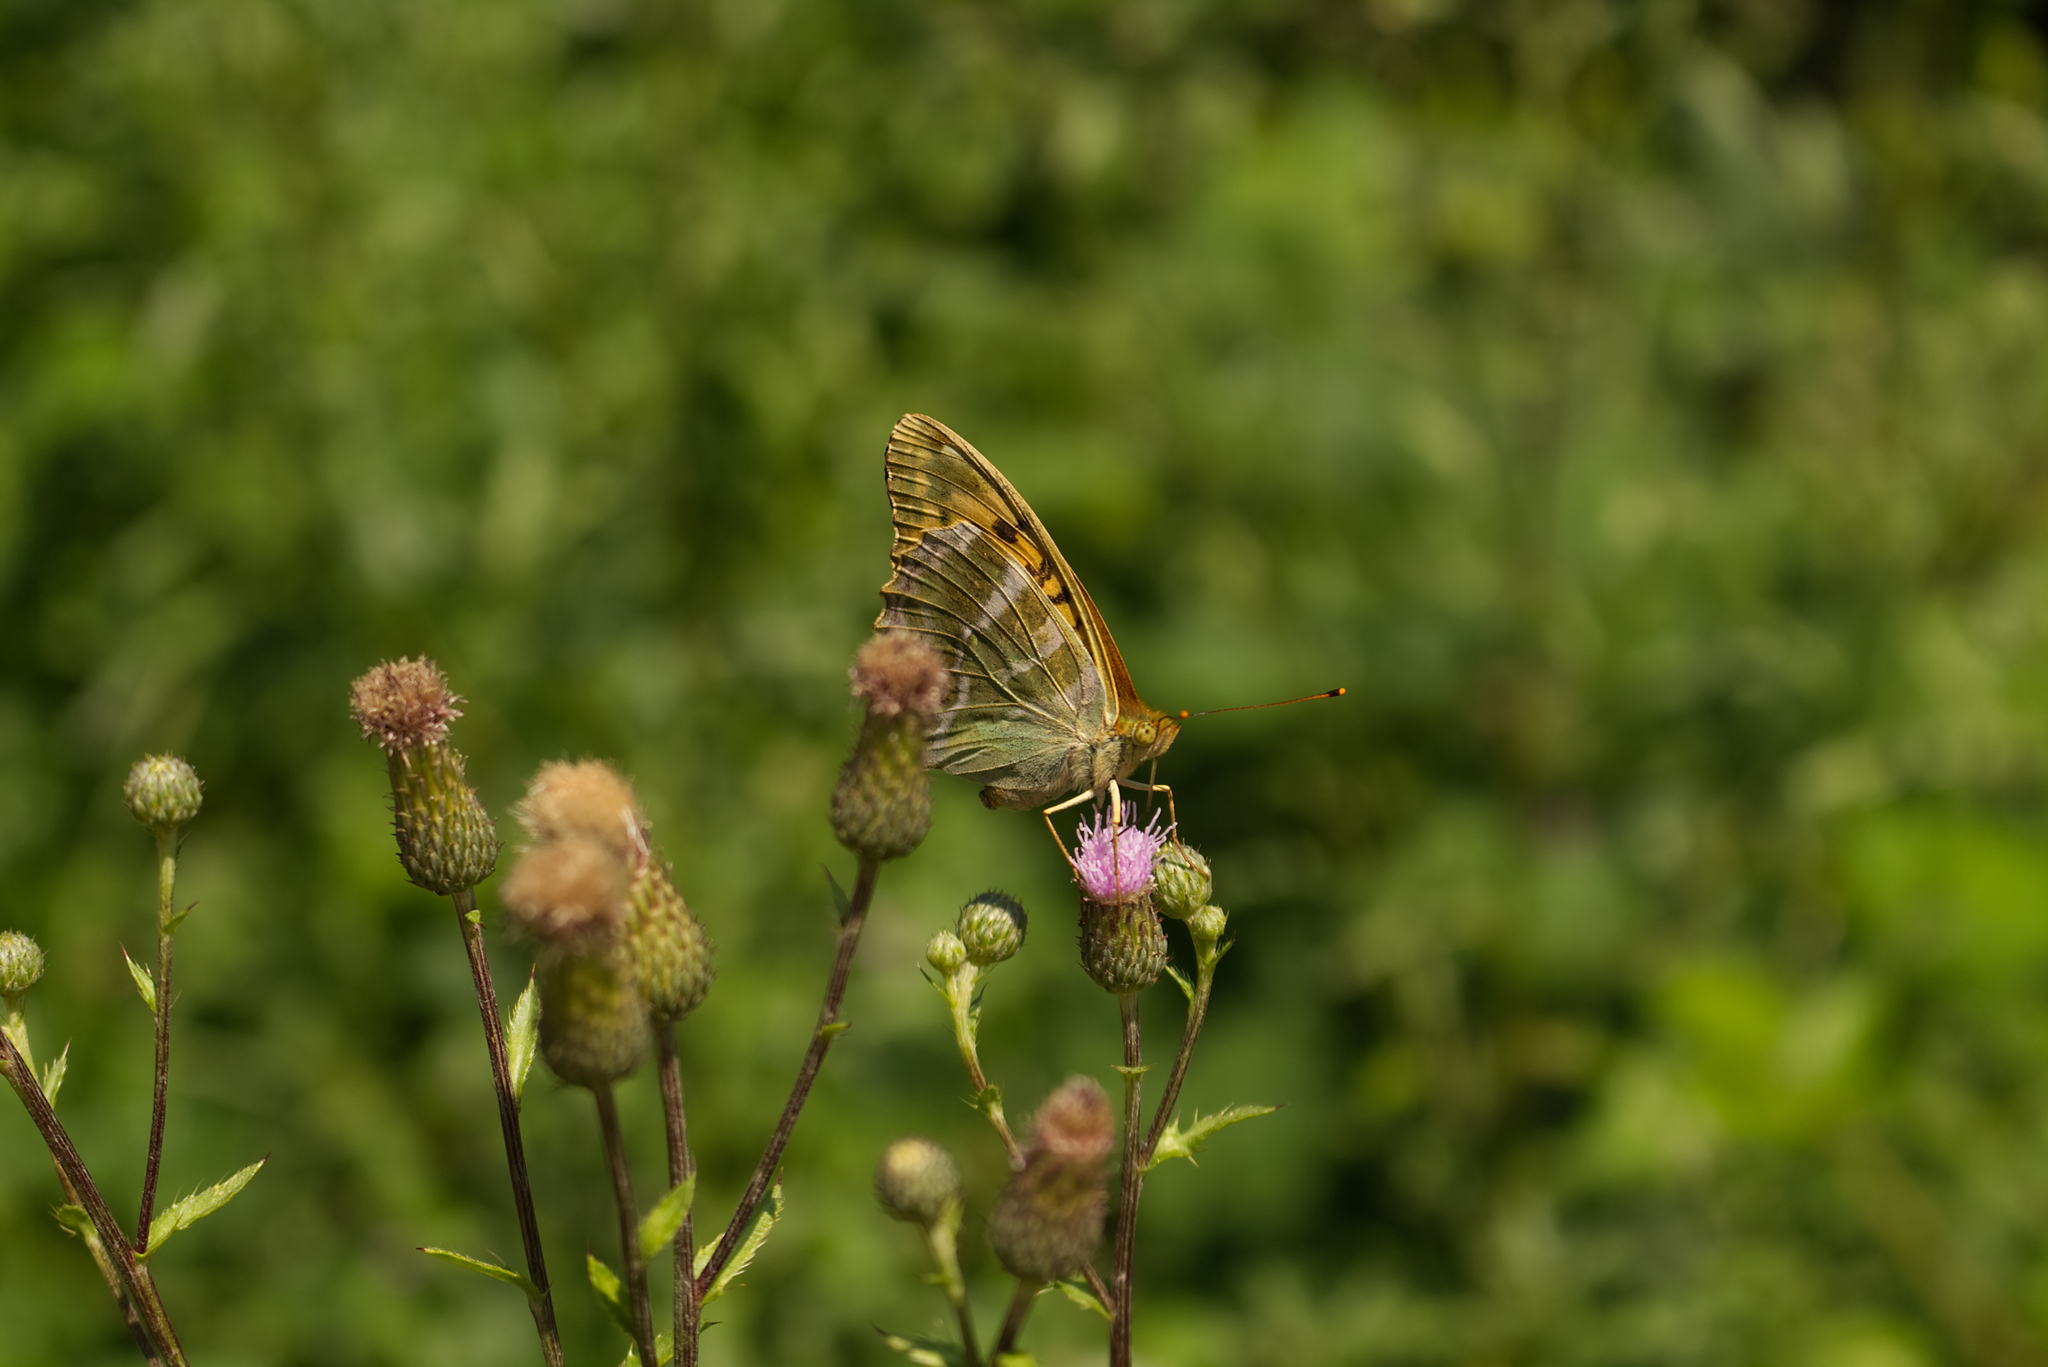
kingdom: Animalia
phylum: Arthropoda
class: Insecta
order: Lepidoptera
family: Nymphalidae
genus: Argynnis
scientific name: Argynnis paphia
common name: Silver-washed fritillary
